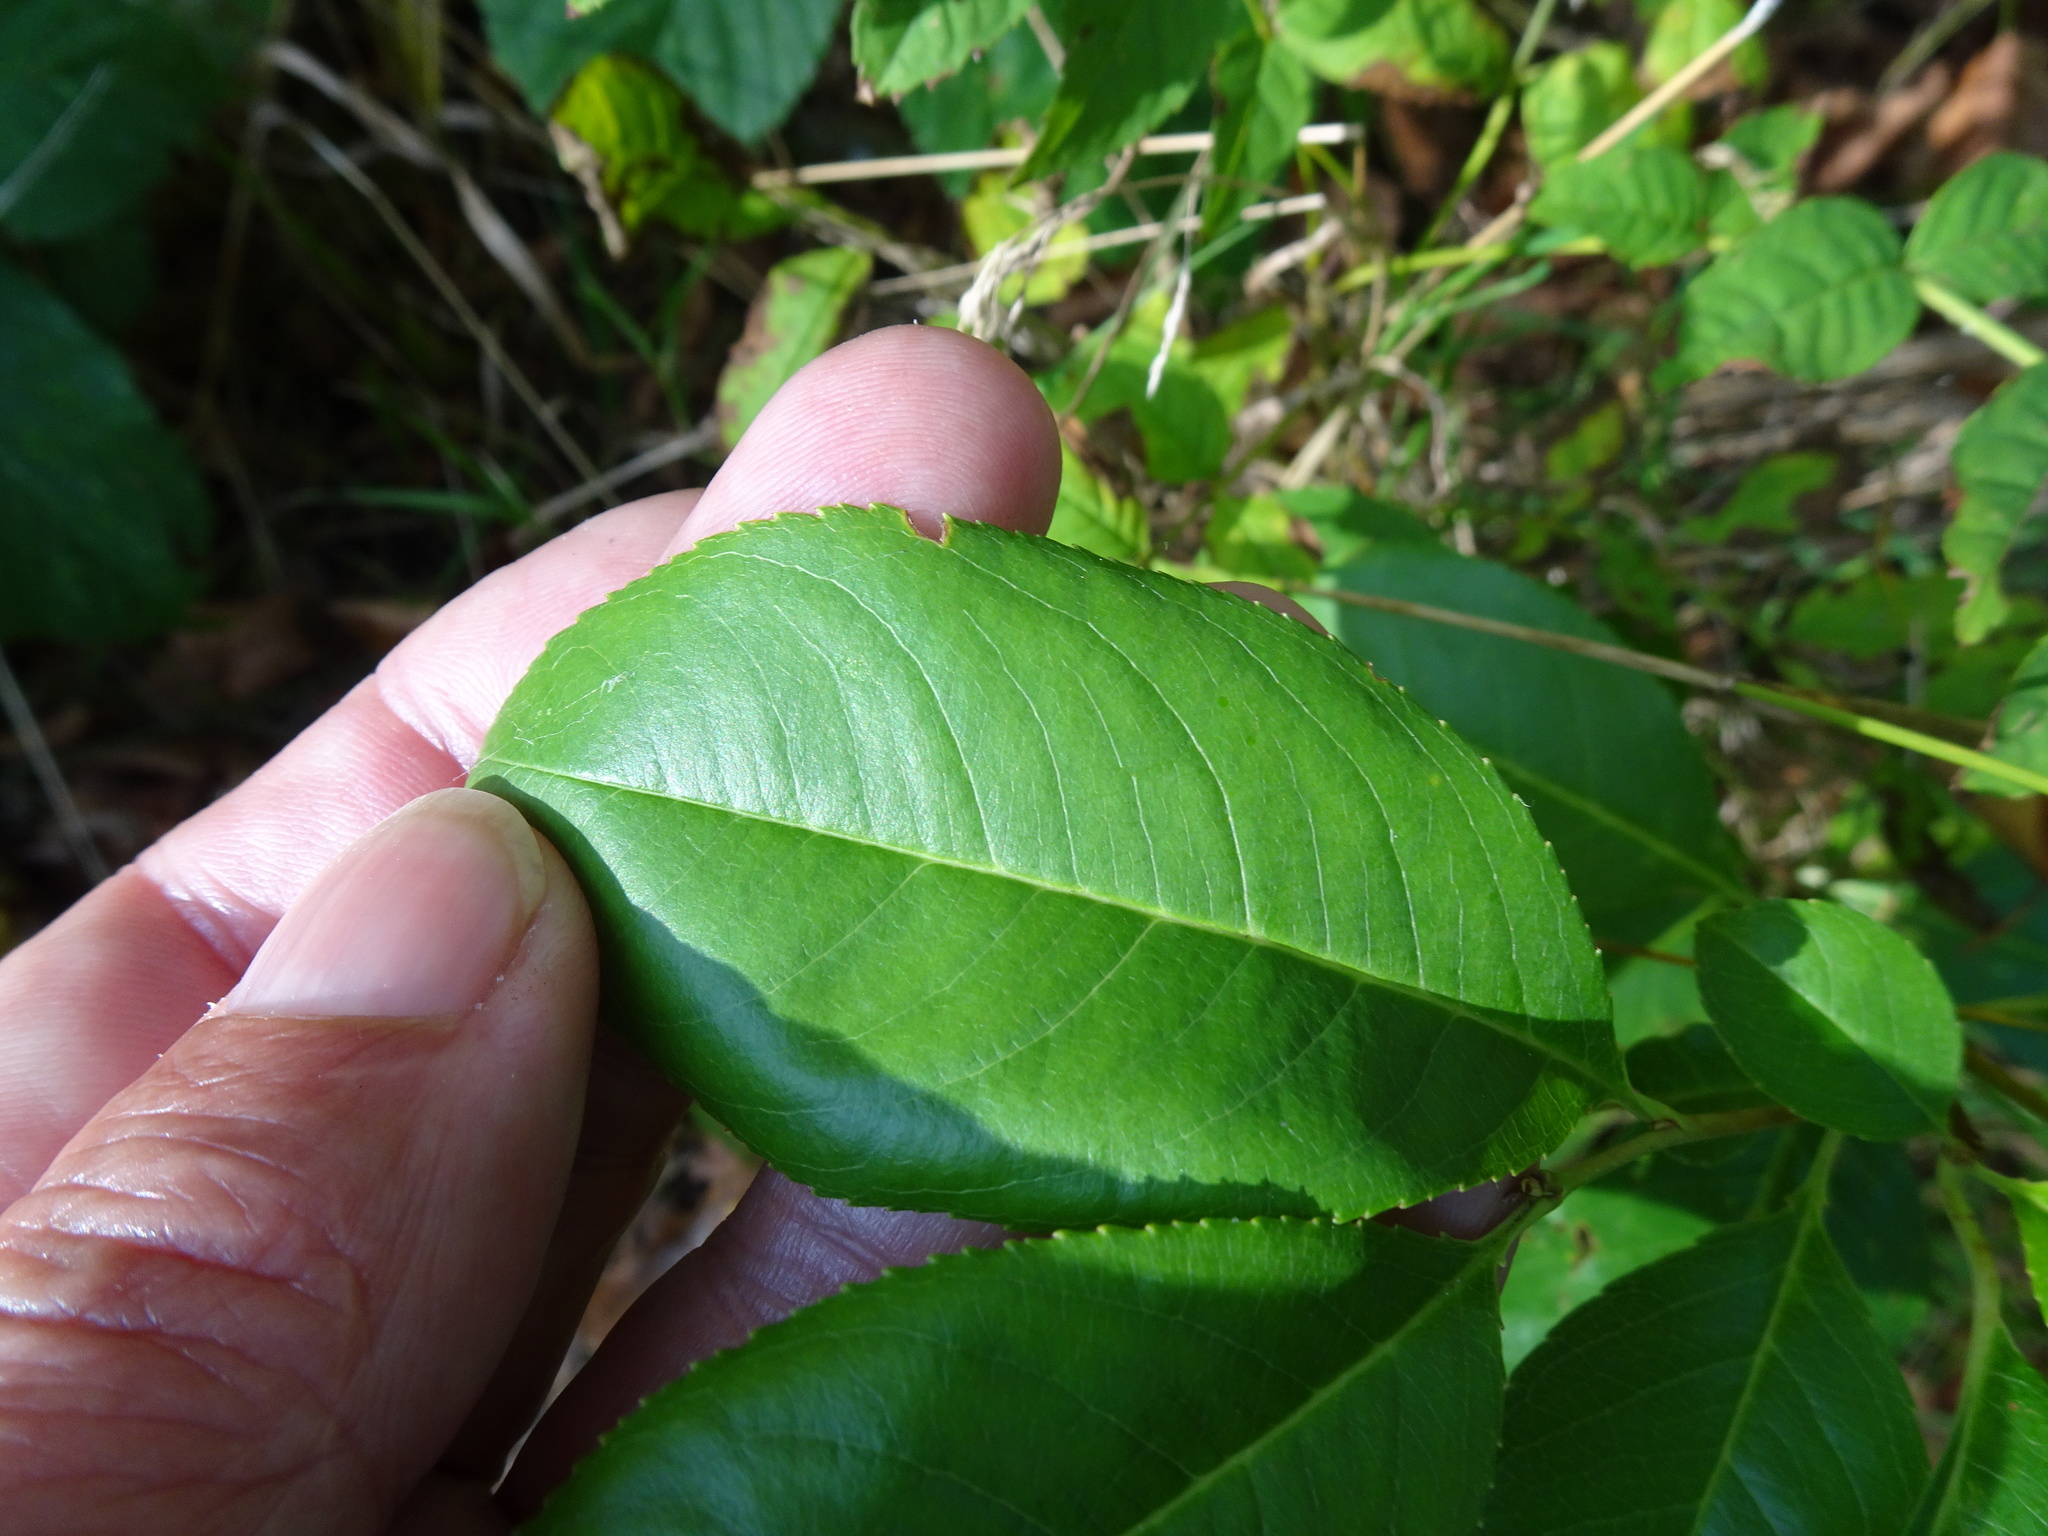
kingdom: Plantae
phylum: Tracheophyta
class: Magnoliopsida
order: Rosales
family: Rosaceae
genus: Prunus
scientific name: Prunus serotina
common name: Black cherry
